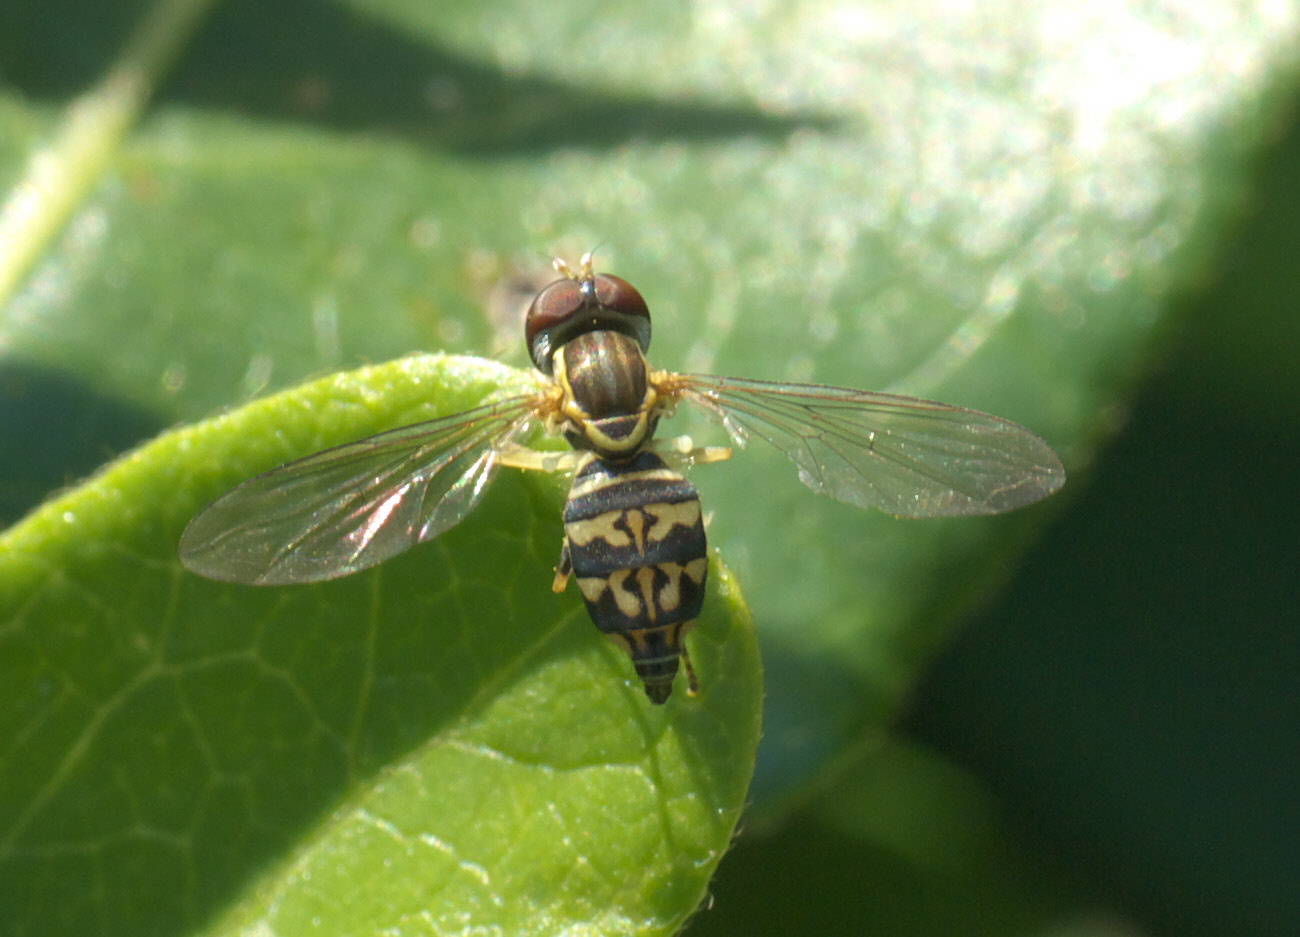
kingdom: Animalia
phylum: Arthropoda
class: Insecta
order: Diptera
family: Syrphidae
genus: Toxomerus
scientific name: Toxomerus geminatus
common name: Eastern calligrapher
